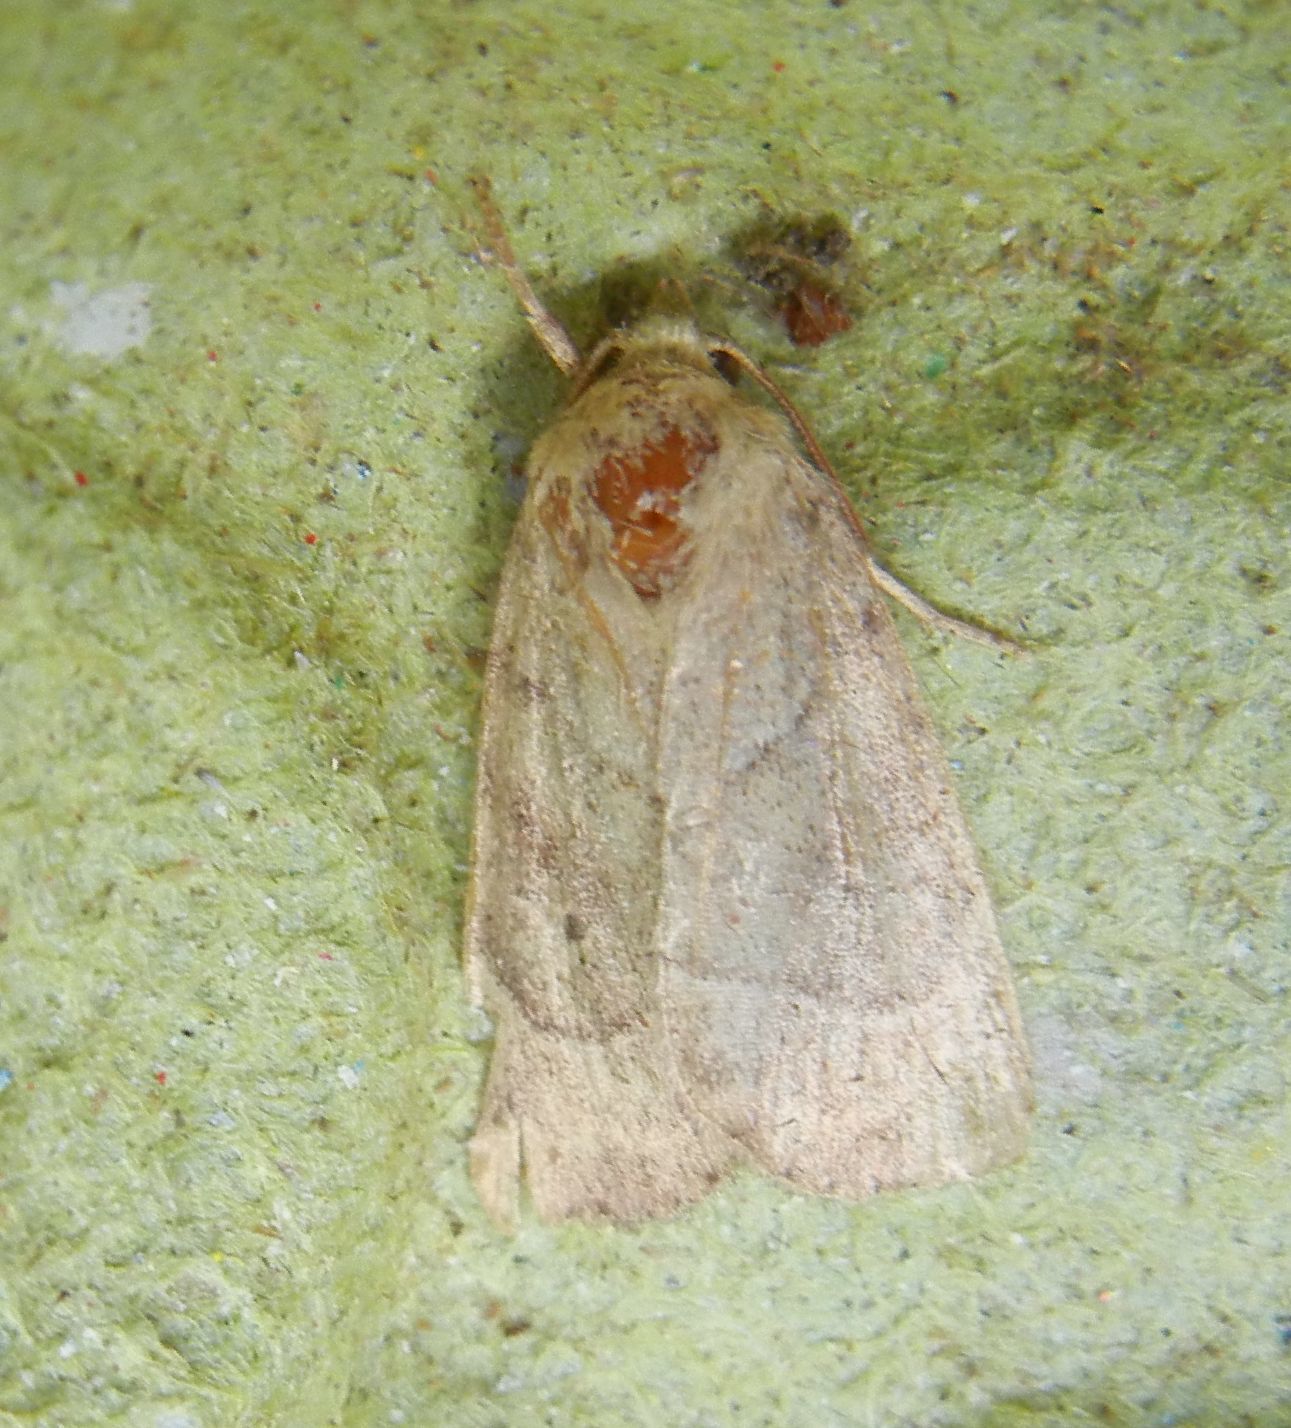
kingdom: Animalia
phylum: Arthropoda
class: Insecta
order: Lepidoptera
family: Noctuidae
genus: Cosmia
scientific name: Cosmia trapezina
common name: Dun-bar
